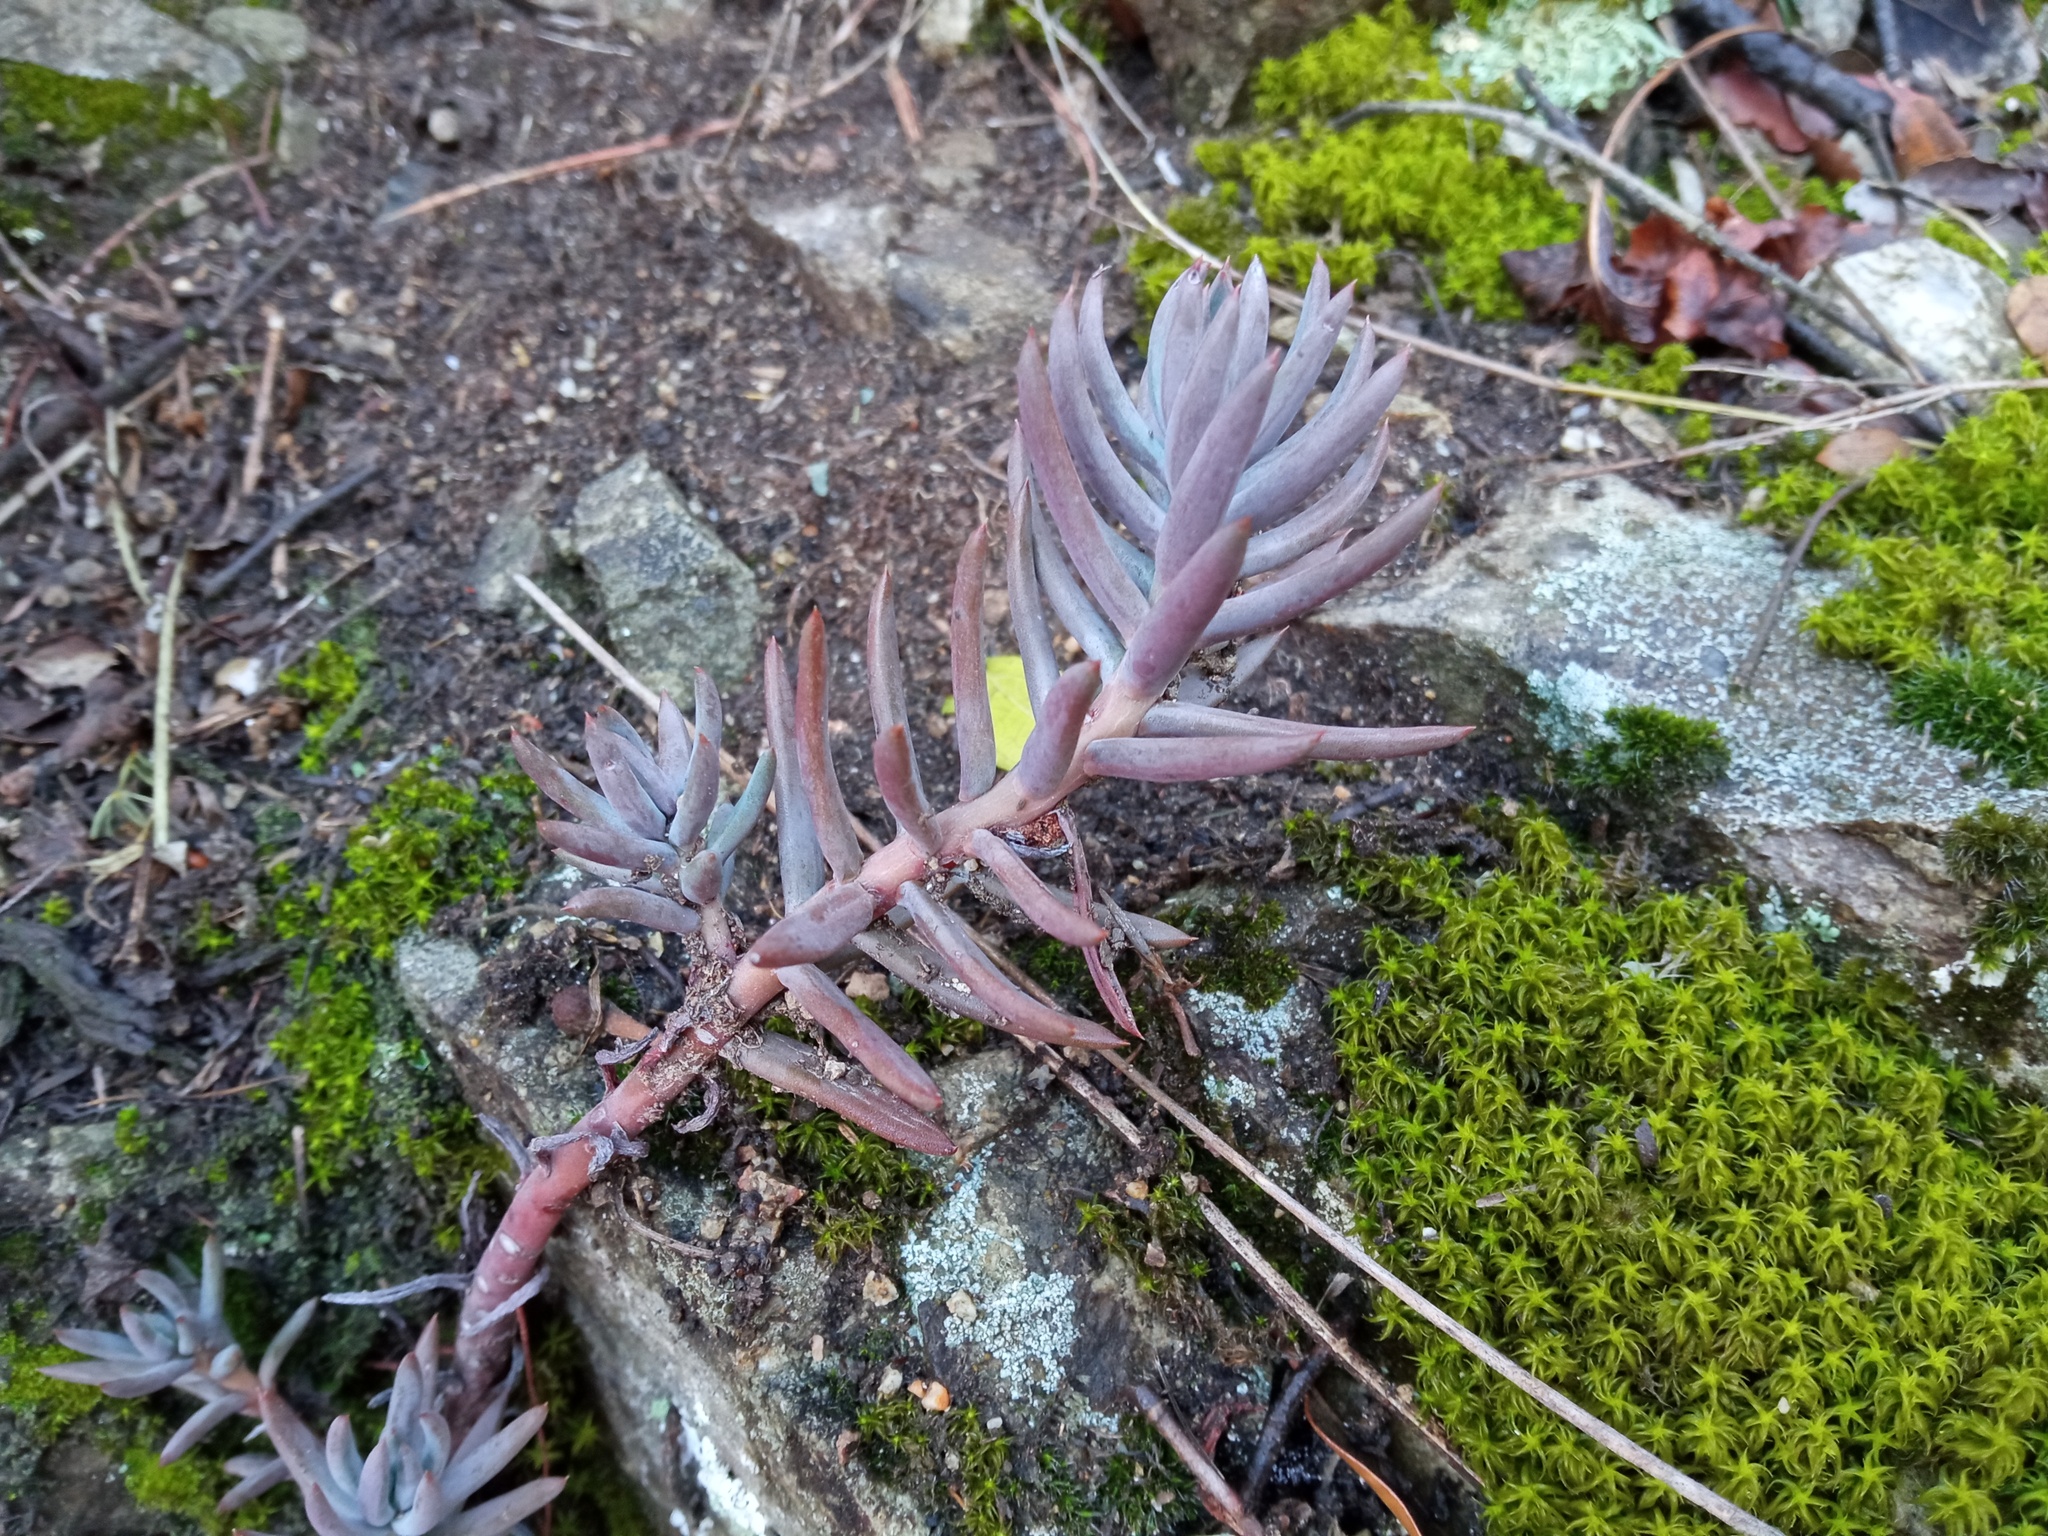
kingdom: Plantae
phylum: Tracheophyta
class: Magnoliopsida
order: Saxifragales
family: Crassulaceae
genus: Petrosedum
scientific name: Petrosedum sediforme
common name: Pale stonecrop
